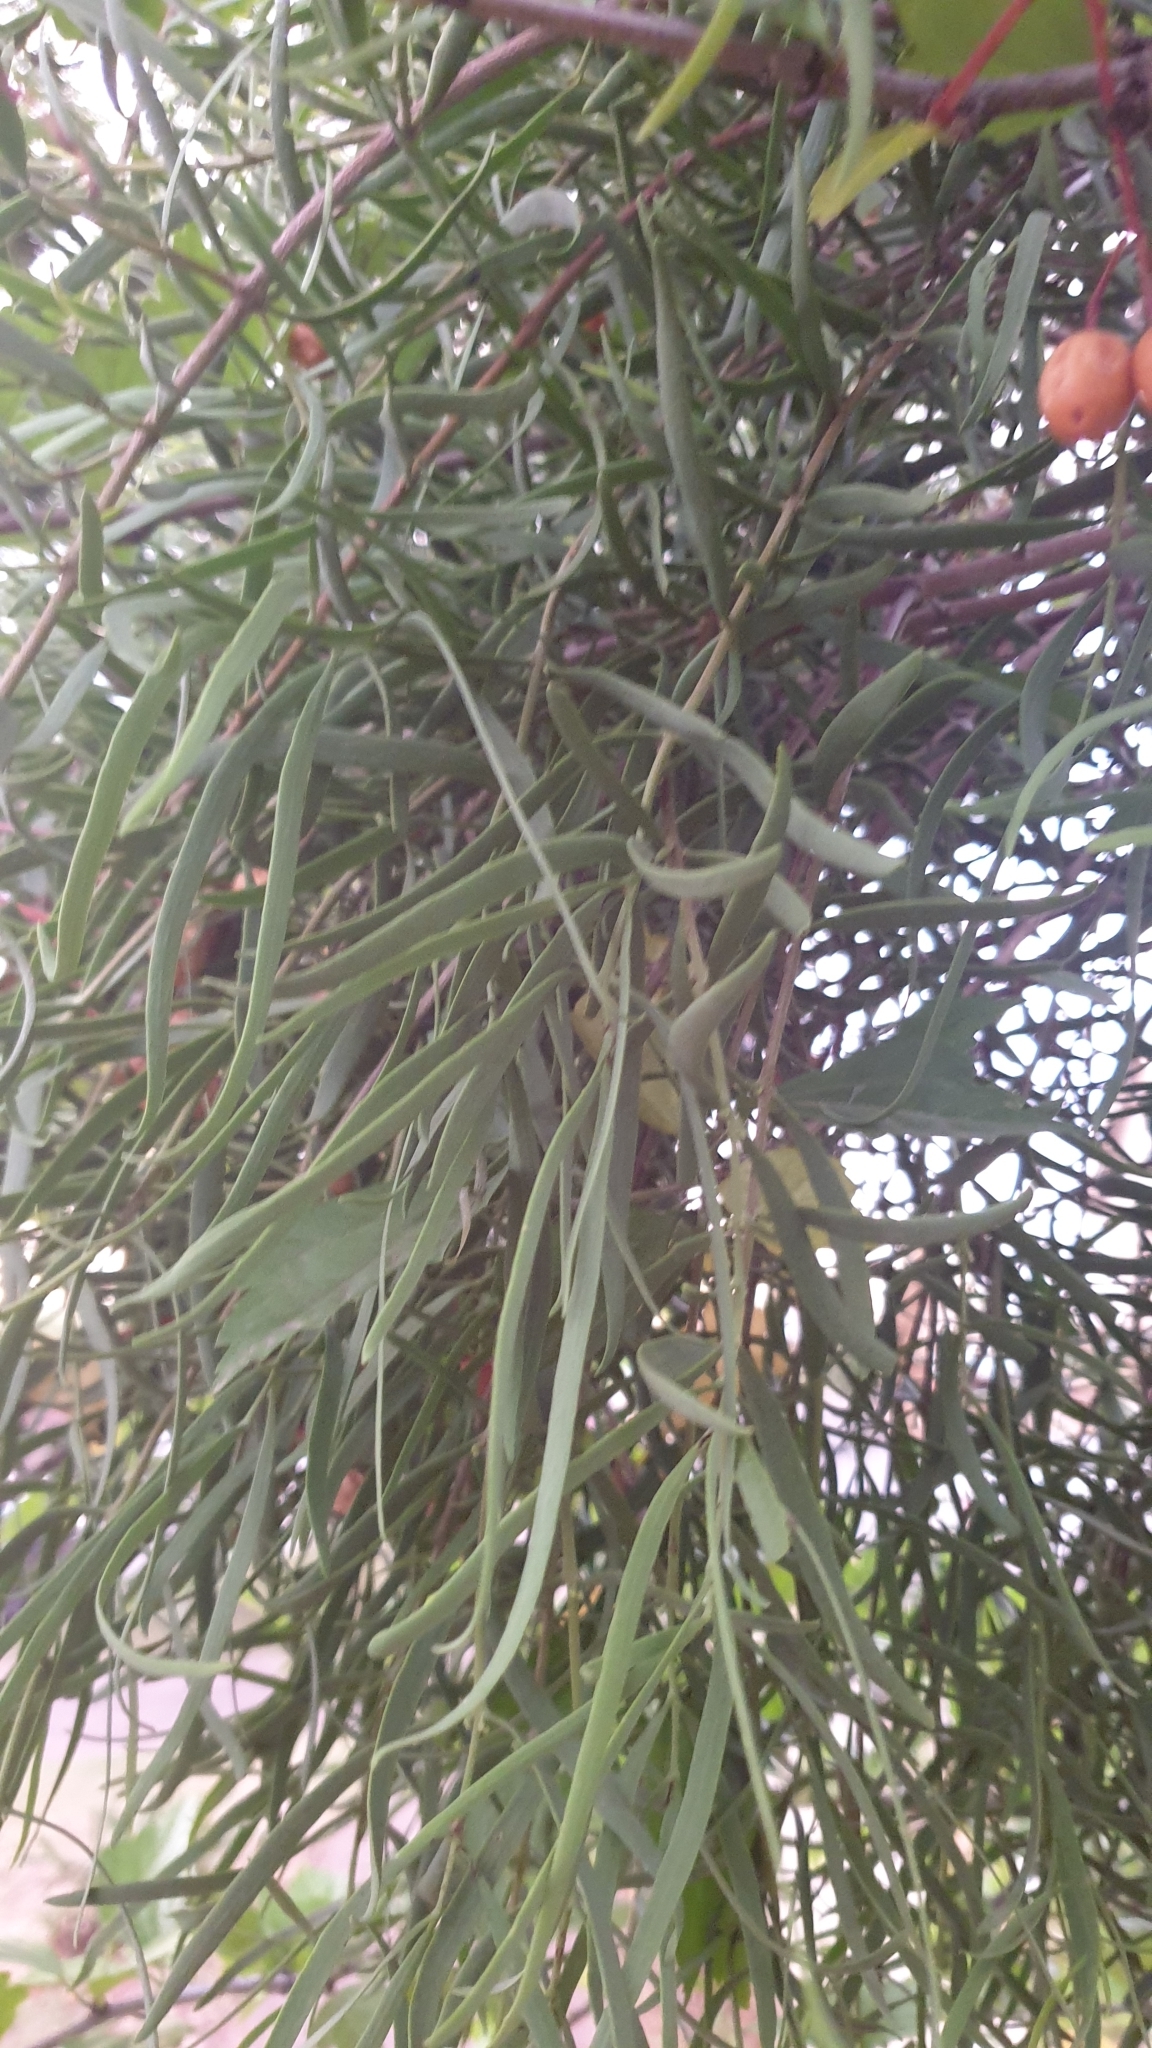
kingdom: Plantae
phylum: Tracheophyta
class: Magnoliopsida
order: Santalales
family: Loranthaceae
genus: Lysiana
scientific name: Lysiana exocarpi
